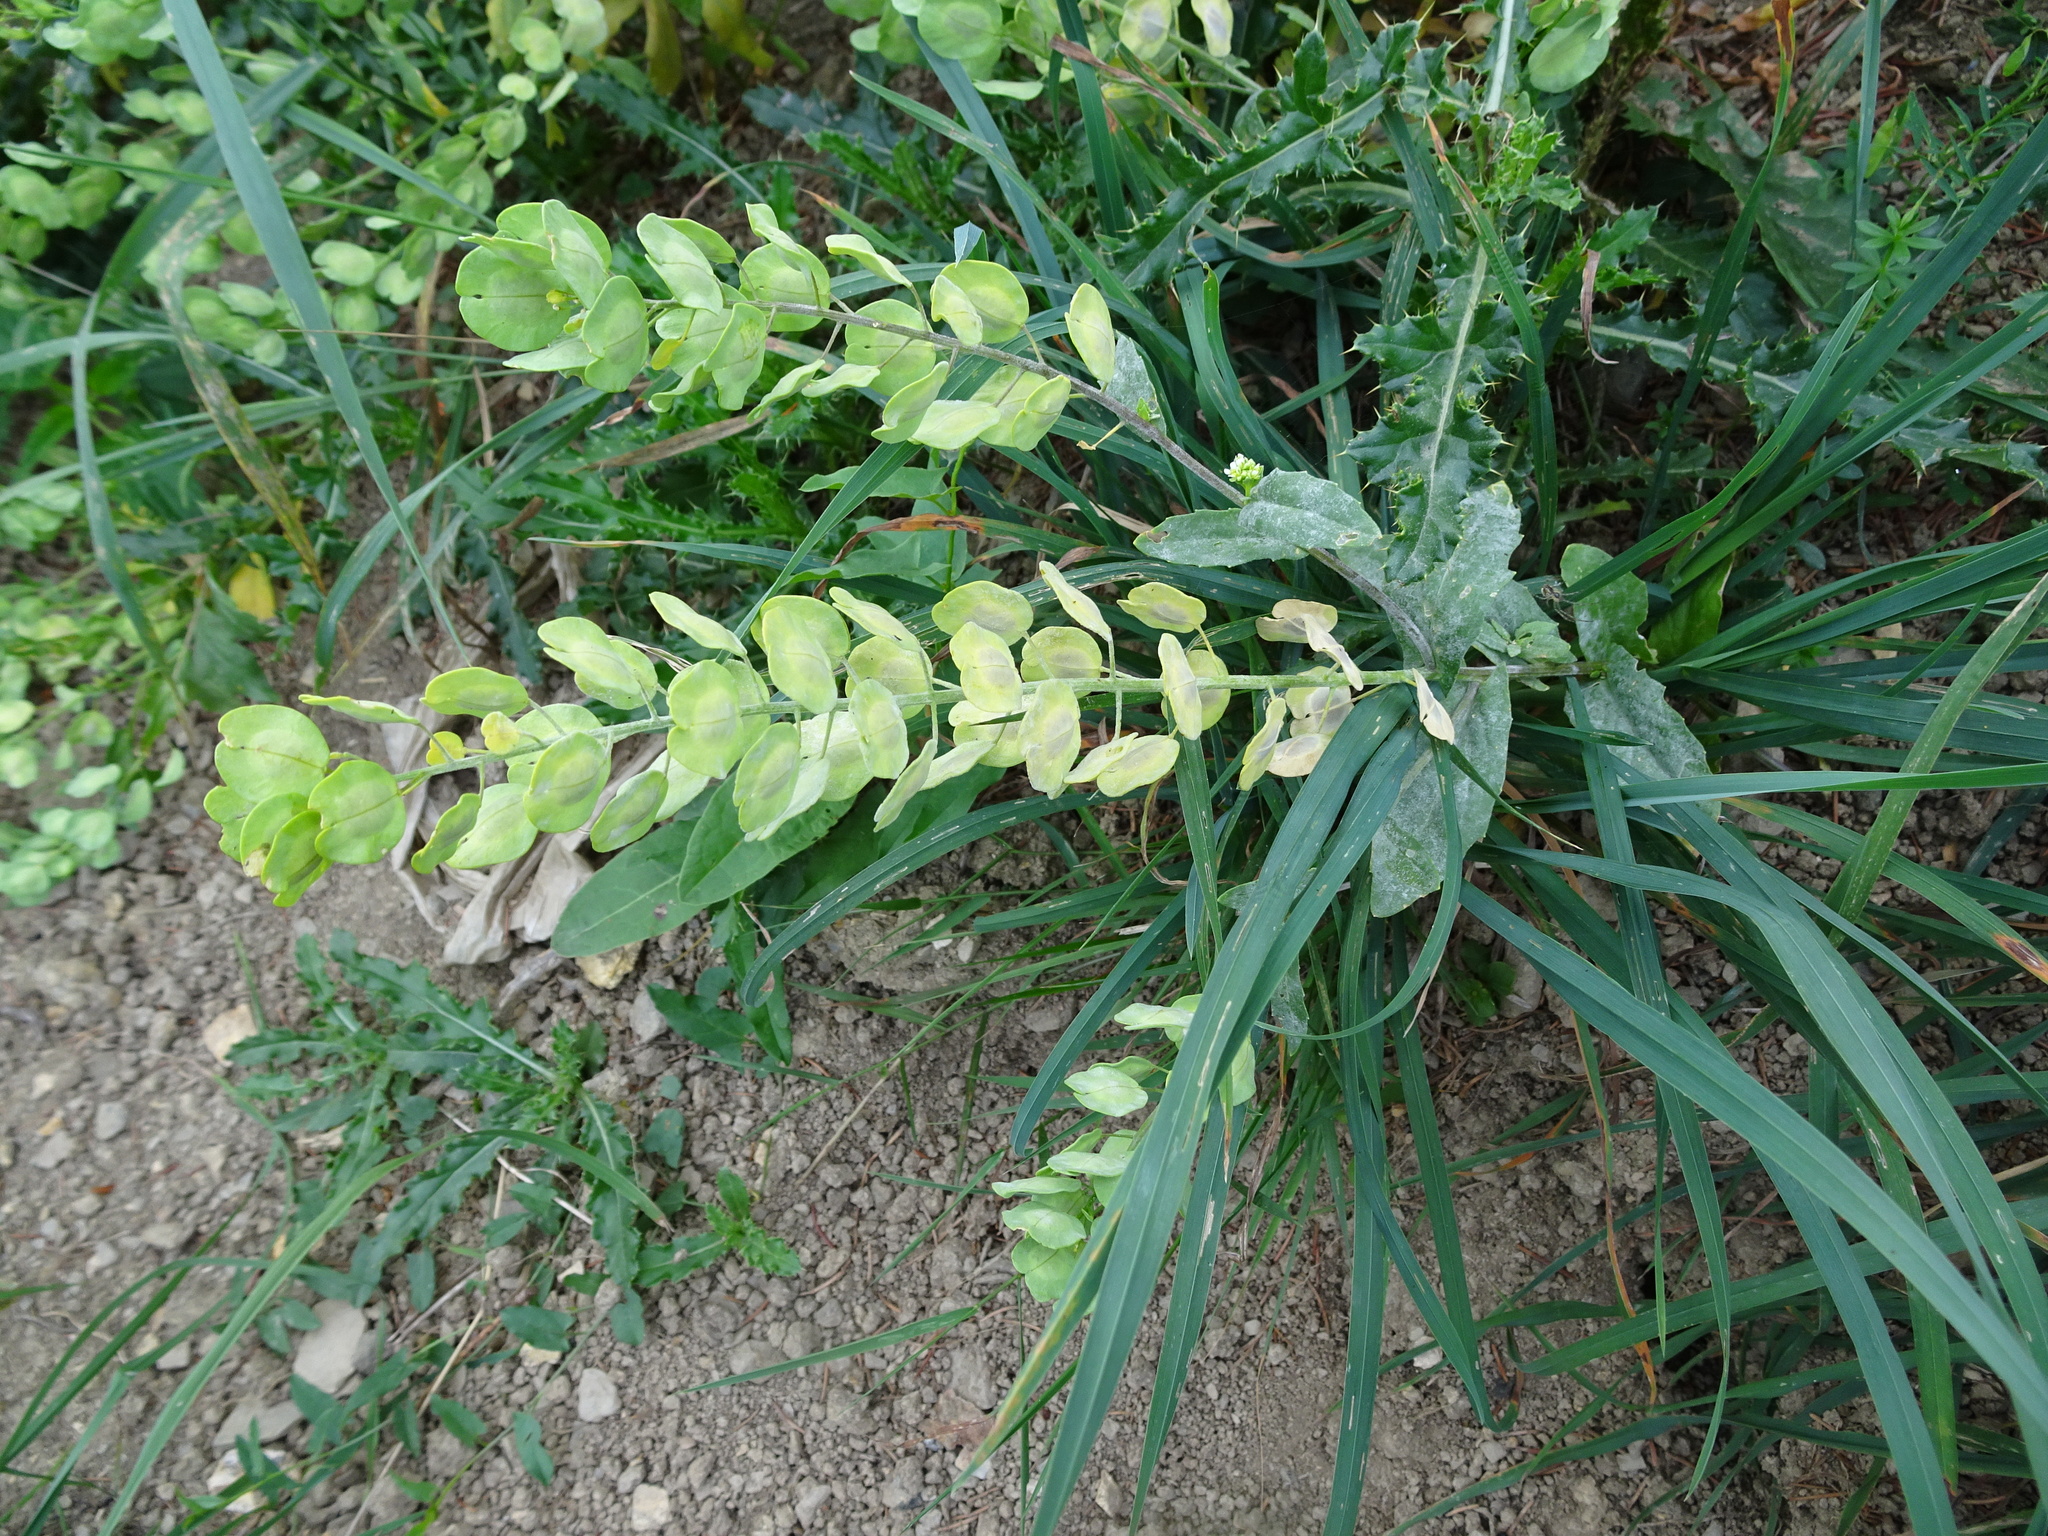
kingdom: Plantae
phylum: Tracheophyta
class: Magnoliopsida
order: Brassicales
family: Brassicaceae
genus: Thlaspi
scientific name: Thlaspi arvense
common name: Field pennycress
